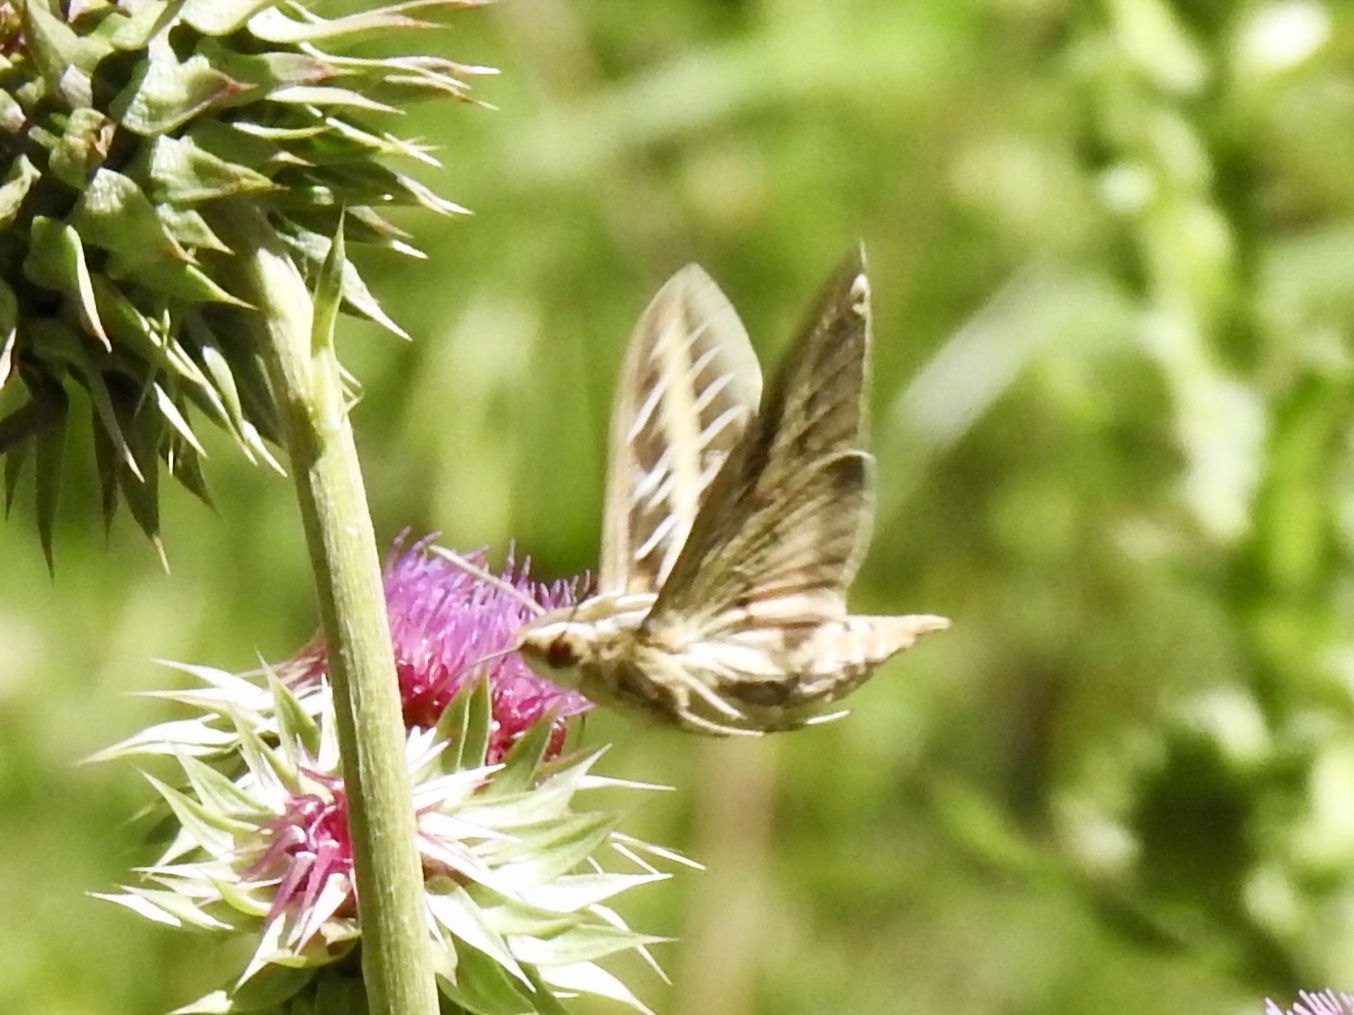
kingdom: Animalia
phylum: Arthropoda
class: Insecta
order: Lepidoptera
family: Sphingidae
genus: Hyles
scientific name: Hyles lineata
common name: White-lined sphinx
